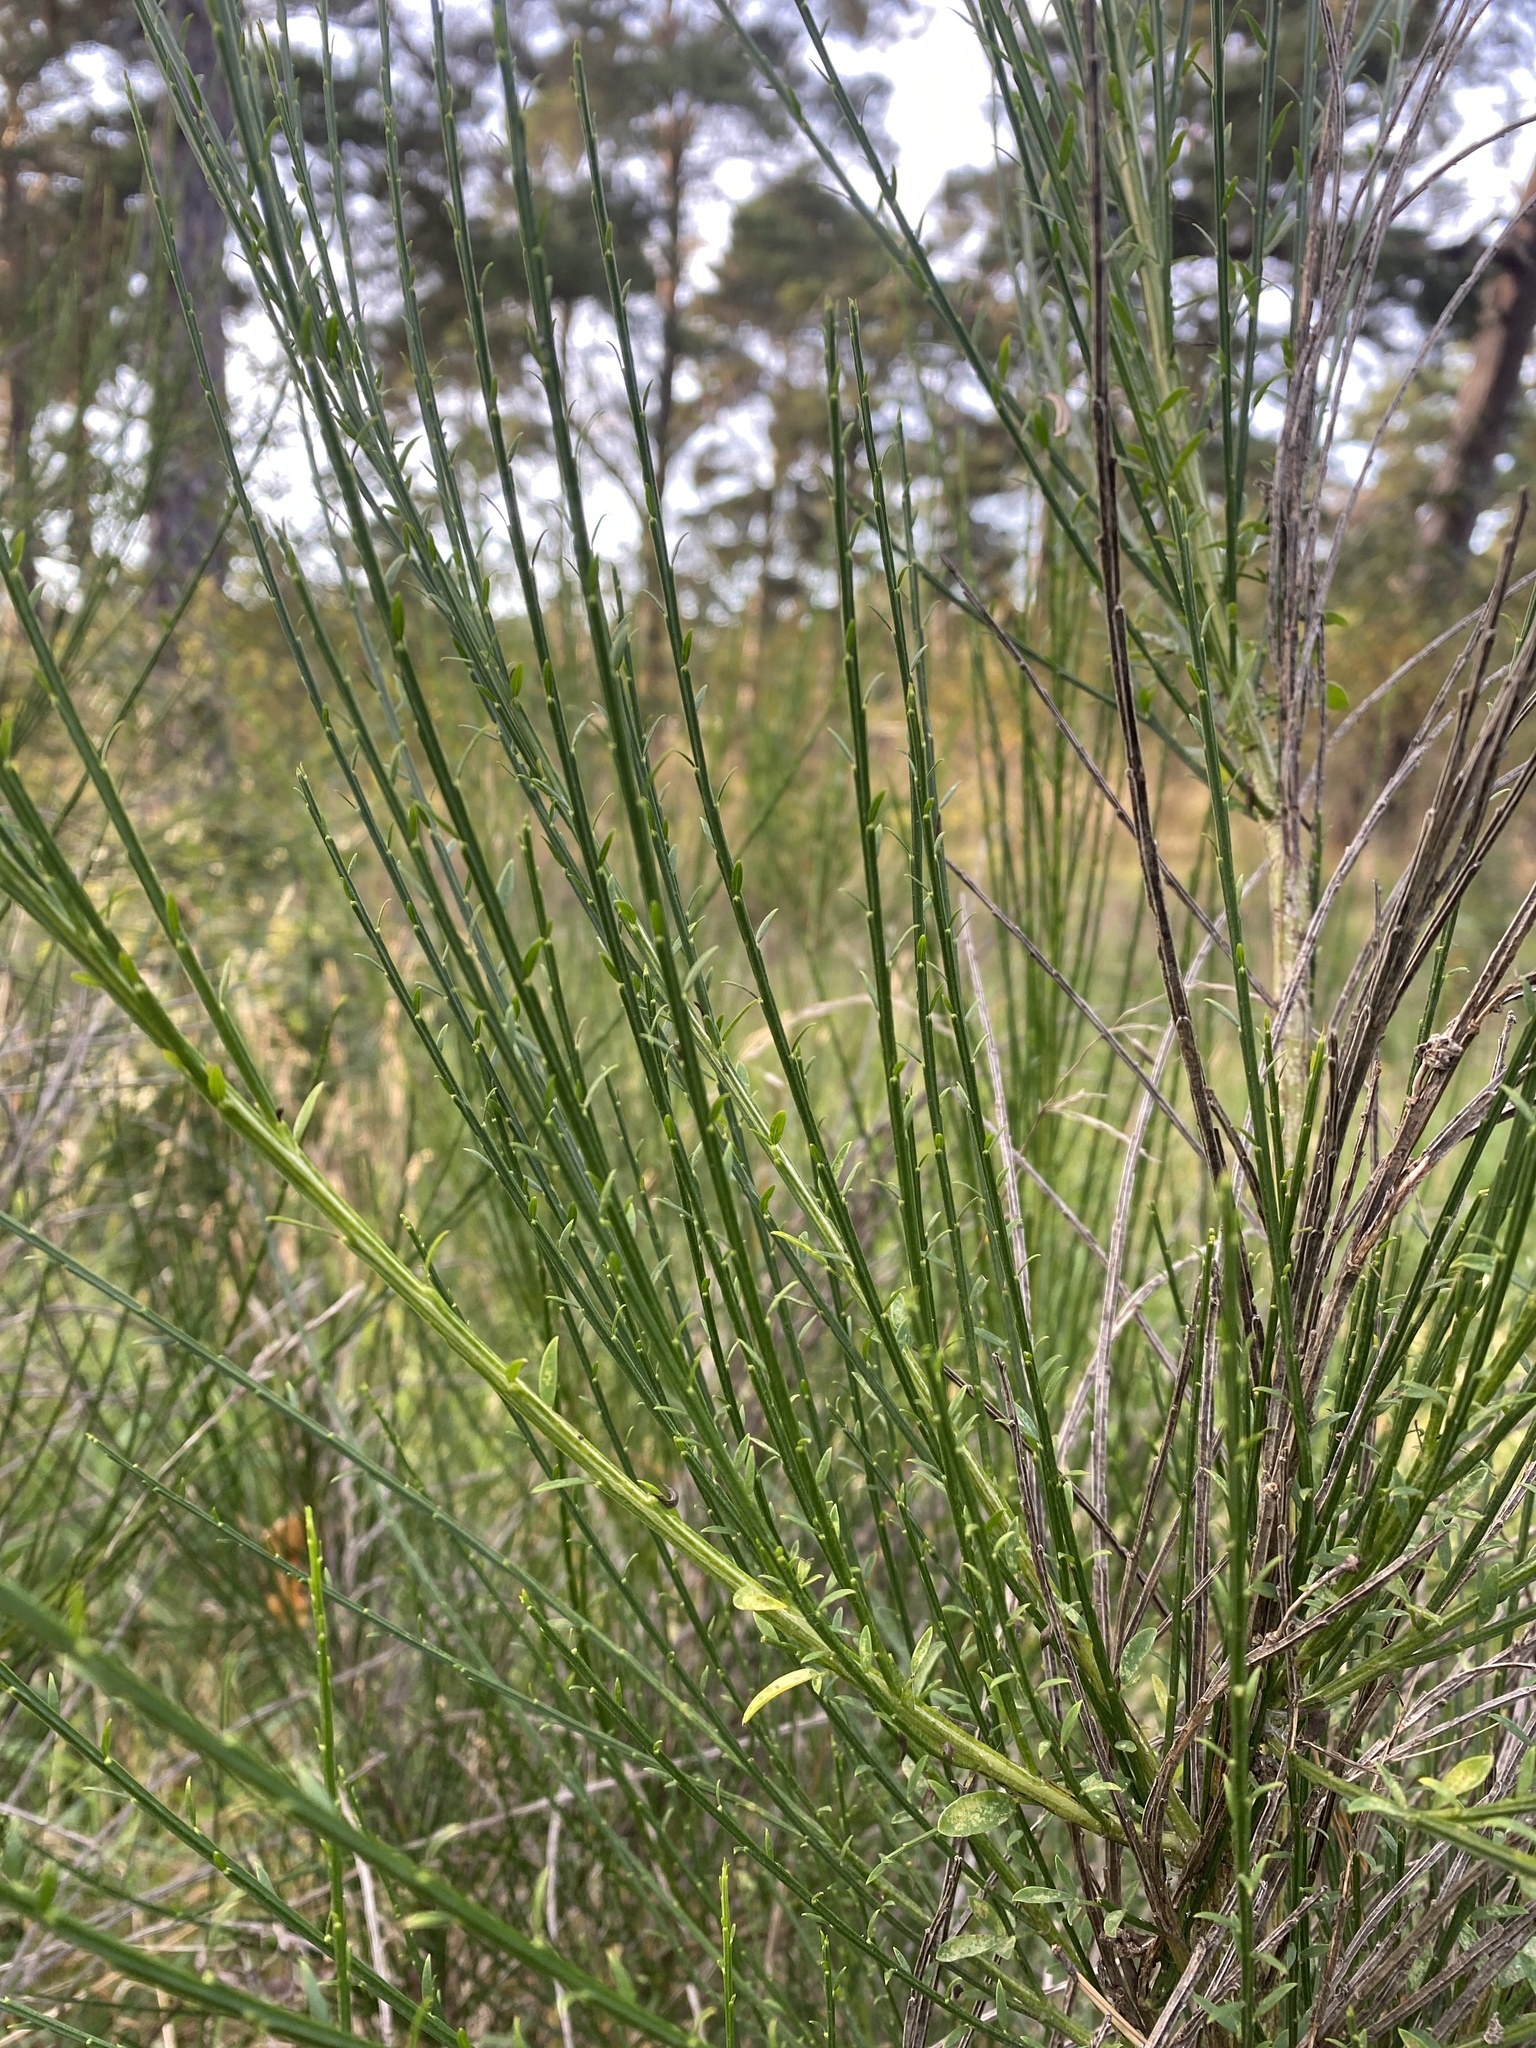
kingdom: Plantae
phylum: Tracheophyta
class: Magnoliopsida
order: Fabales
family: Fabaceae
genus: Cytisus
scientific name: Cytisus scoparius
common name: Scotch broom
